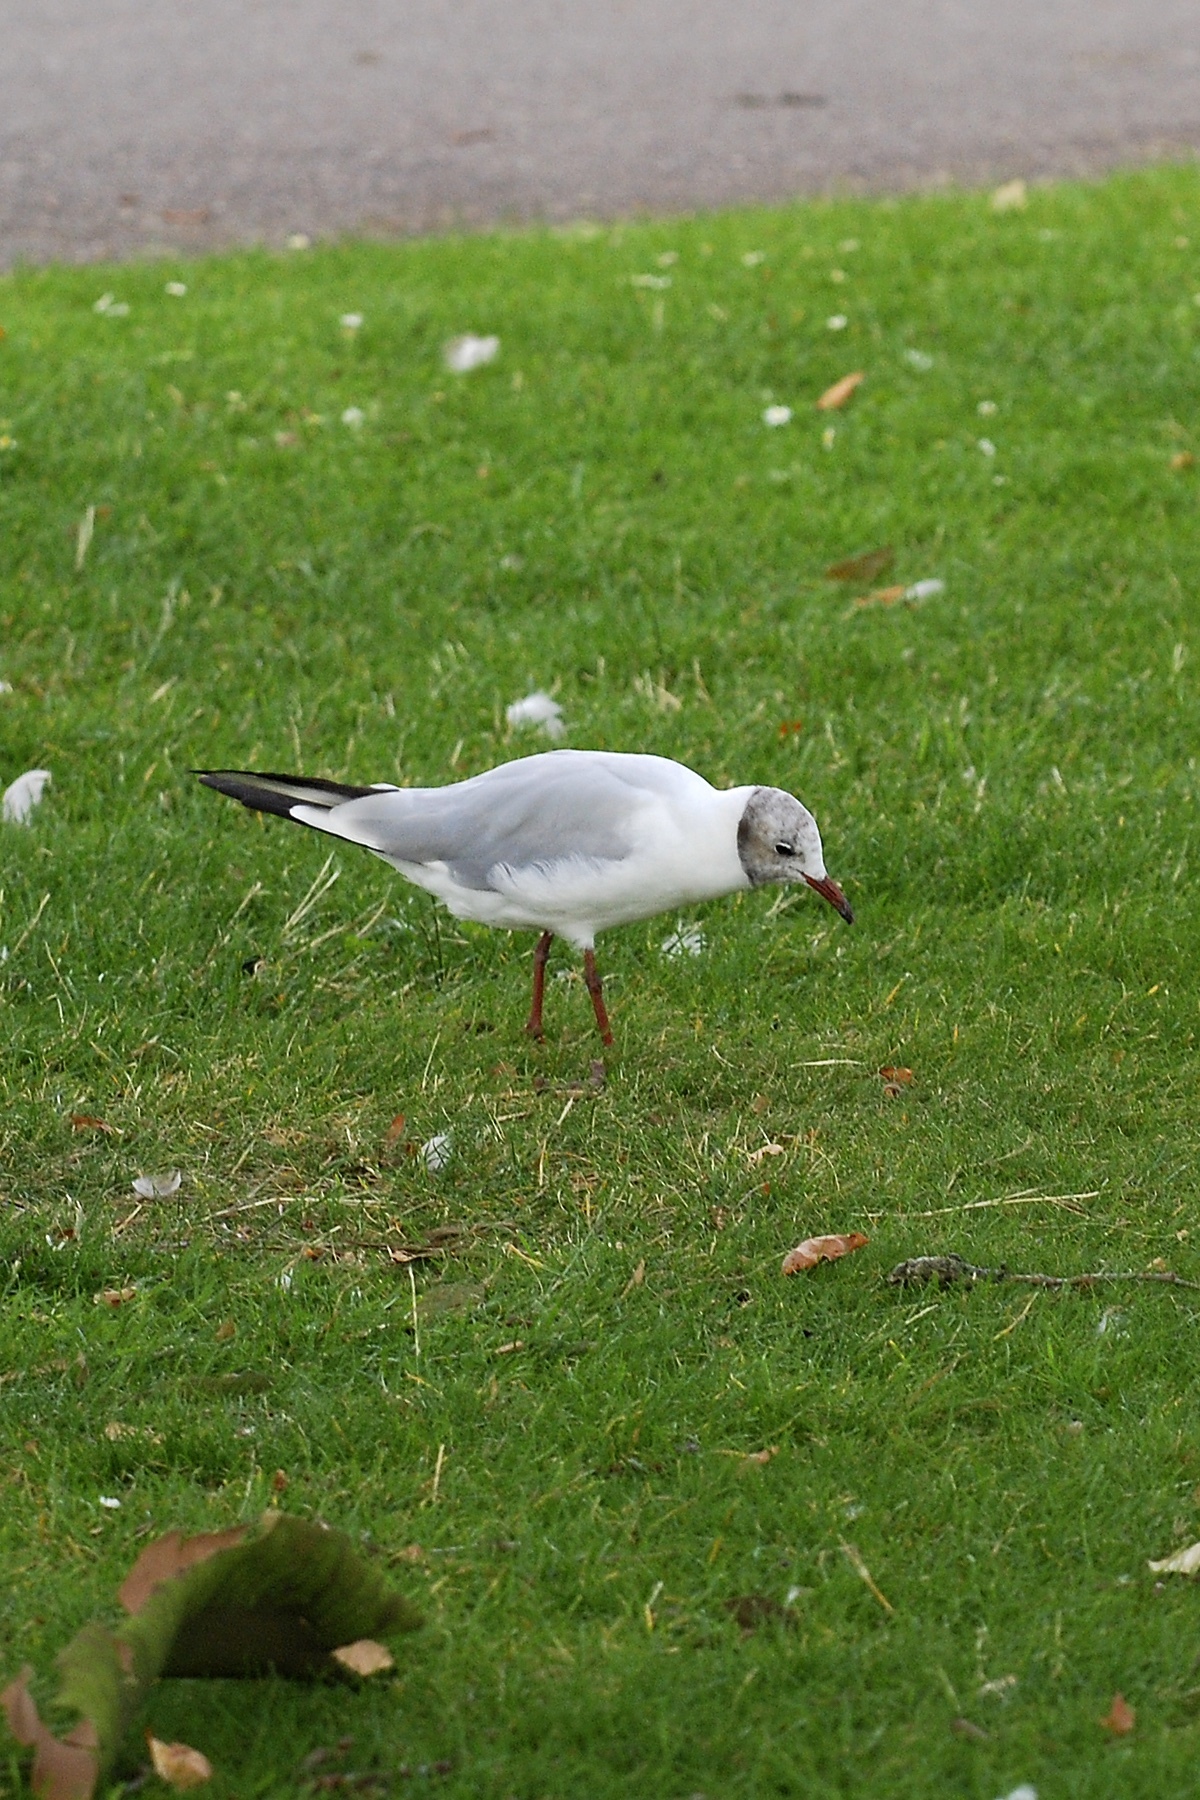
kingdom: Animalia
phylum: Chordata
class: Aves
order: Charadriiformes
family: Laridae
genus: Chroicocephalus
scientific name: Chroicocephalus ridibundus
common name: Black-headed gull
